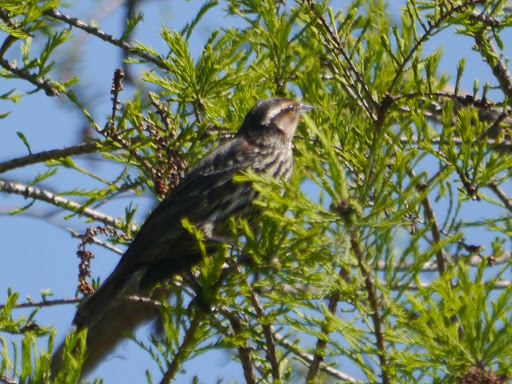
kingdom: Animalia
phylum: Chordata
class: Aves
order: Passeriformes
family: Icteridae
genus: Agelaius
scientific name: Agelaius phoeniceus
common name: Red-winged blackbird
